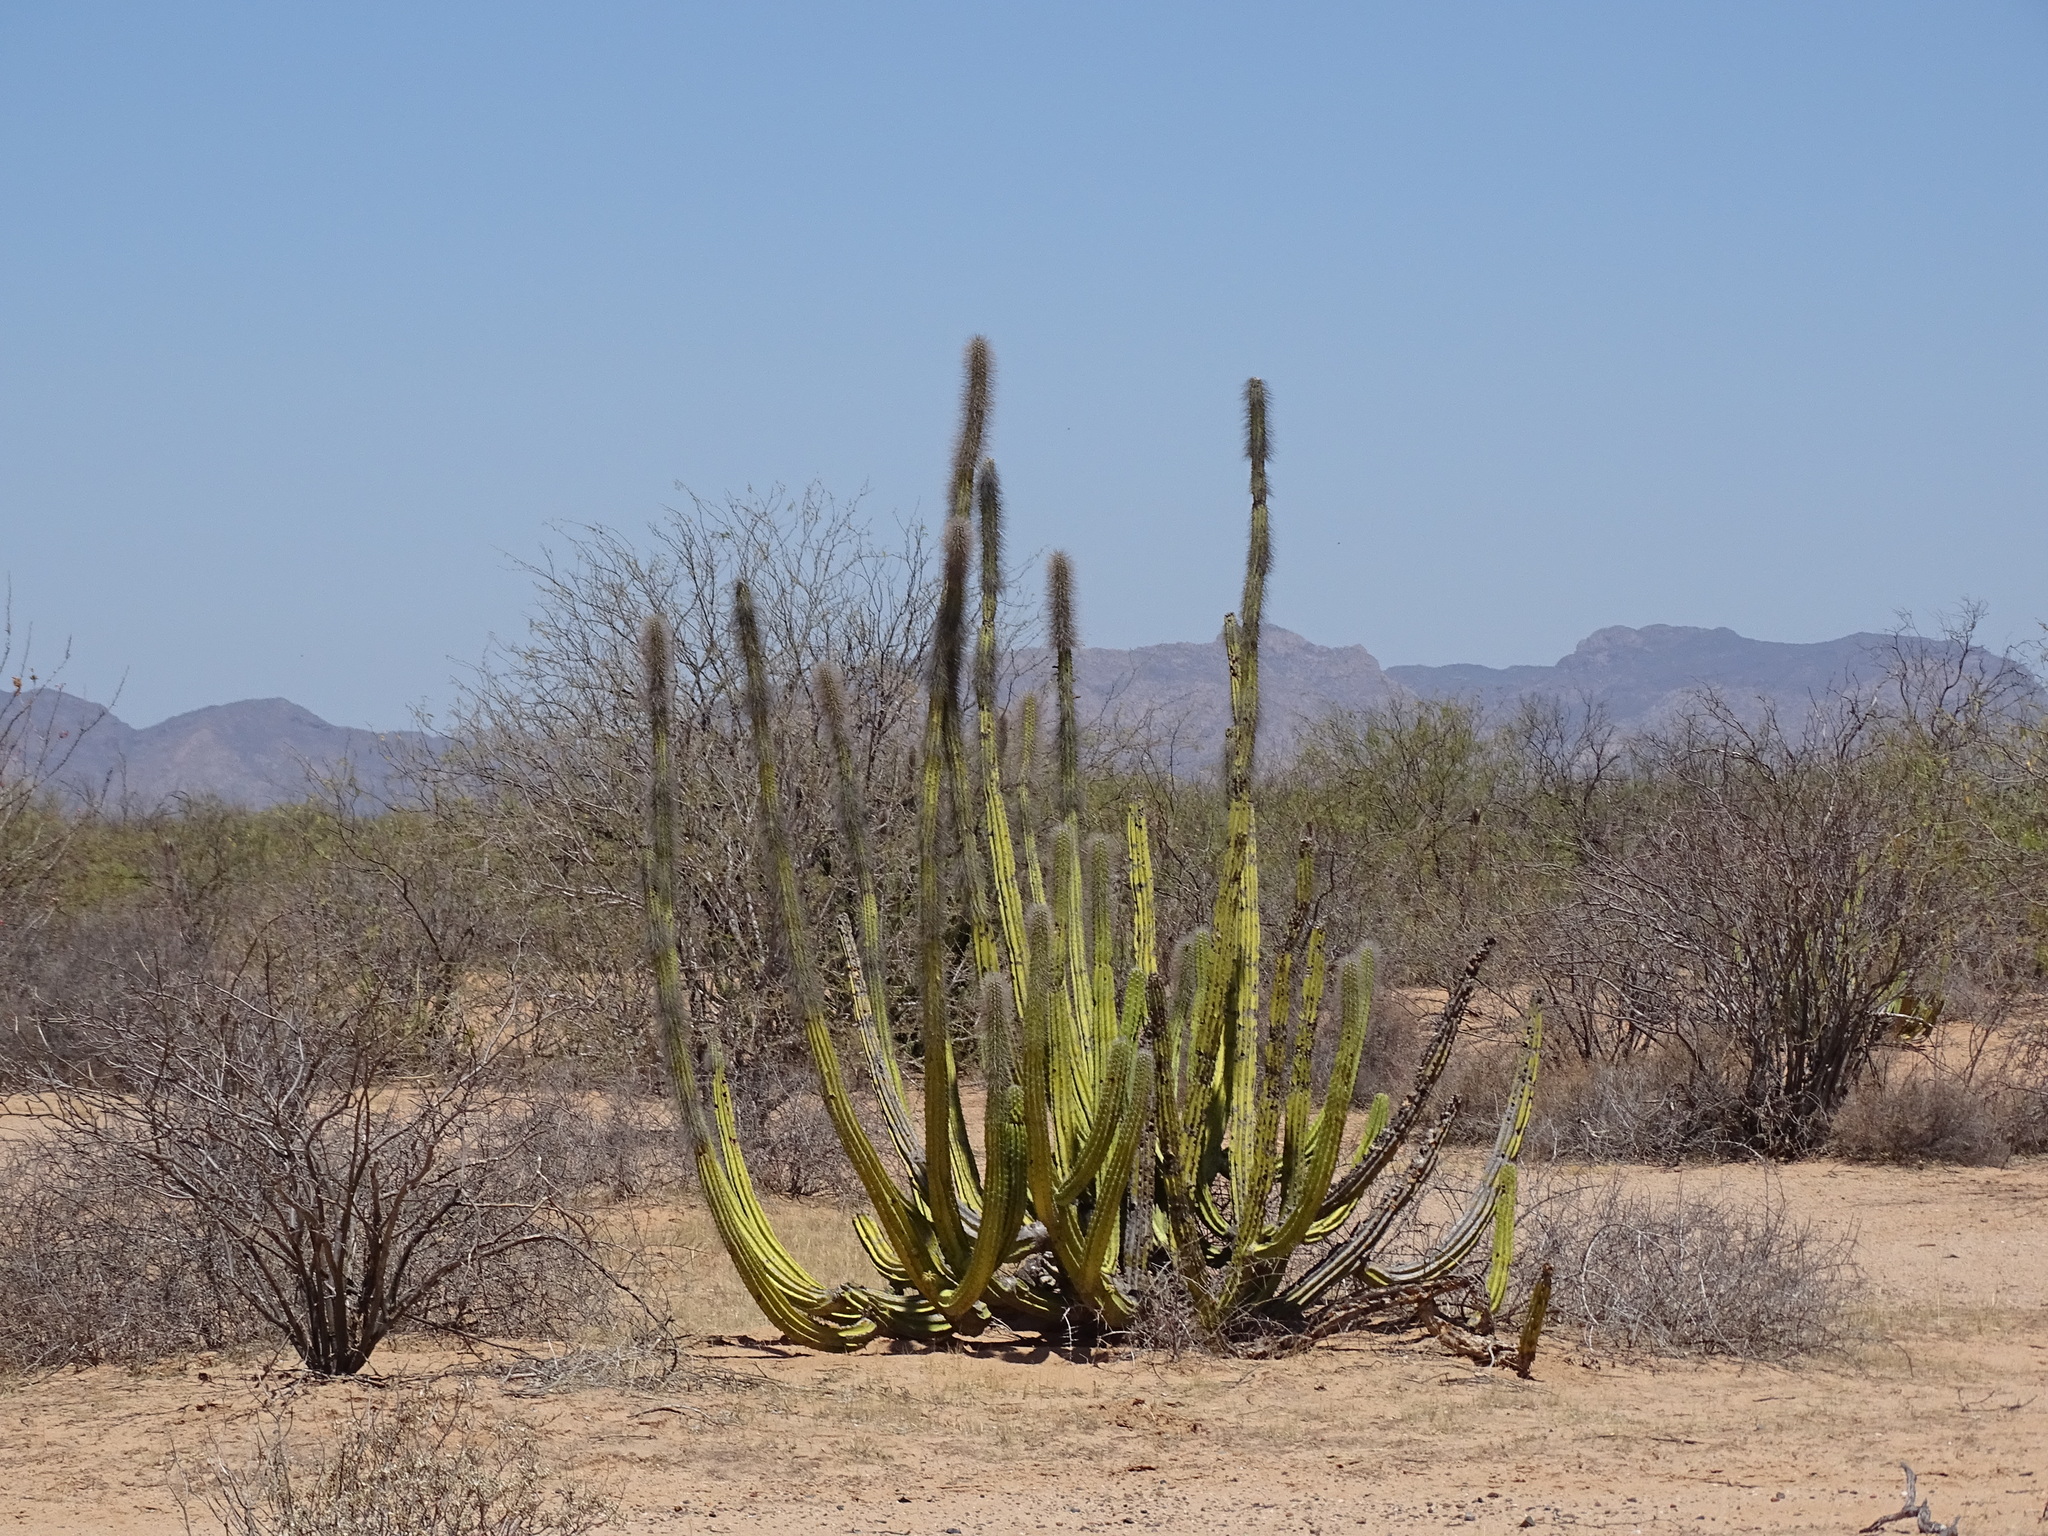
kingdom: Plantae
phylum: Tracheophyta
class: Magnoliopsida
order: Caryophyllales
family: Cactaceae
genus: Pachycereus
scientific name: Pachycereus schottii
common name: Senita cactus
